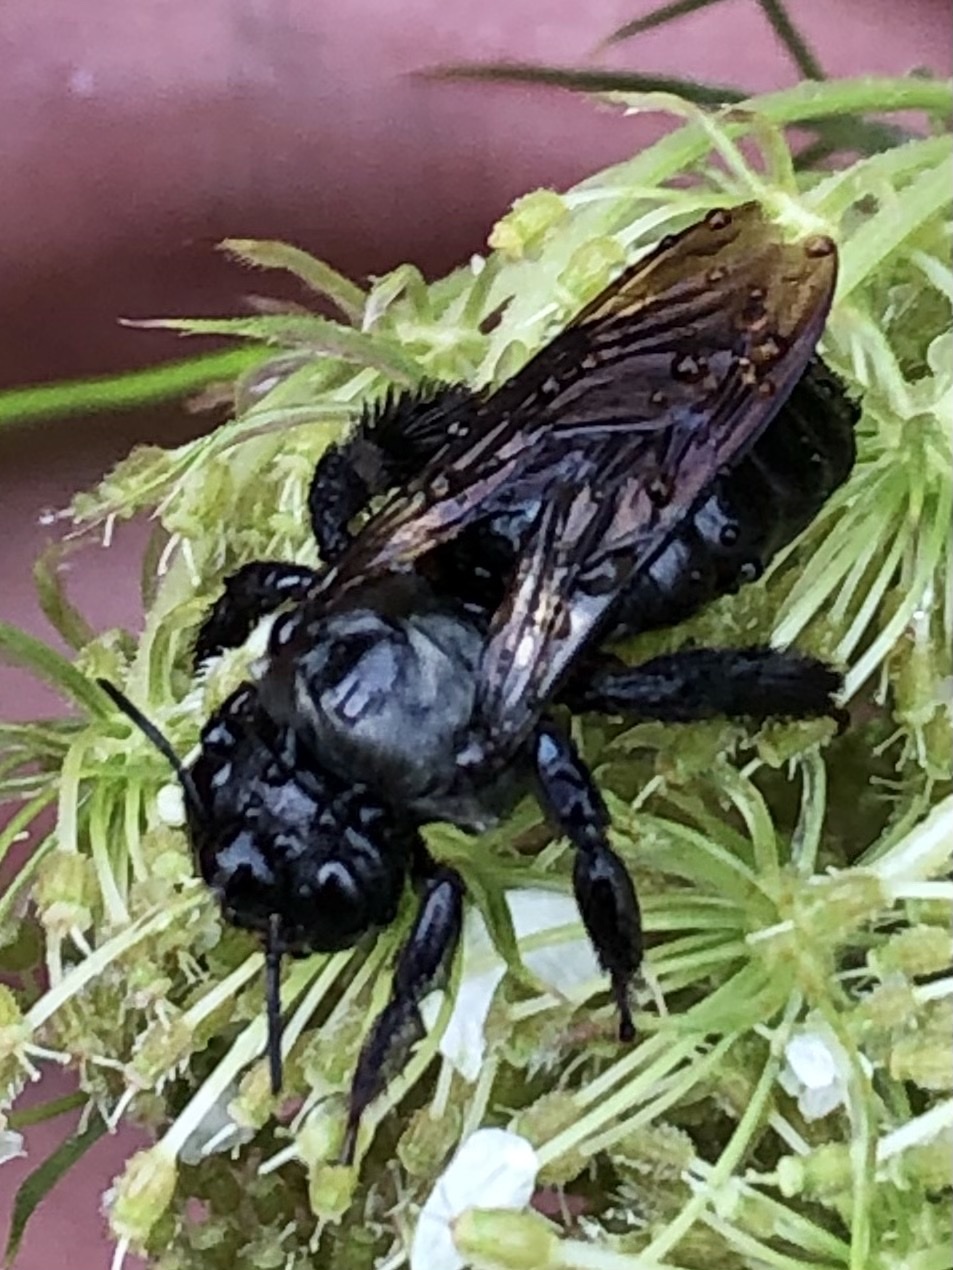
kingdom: Animalia
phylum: Arthropoda
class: Insecta
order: Hymenoptera
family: Apidae
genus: Xylocopa
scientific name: Xylocopa virginica
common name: Carpenter bee
